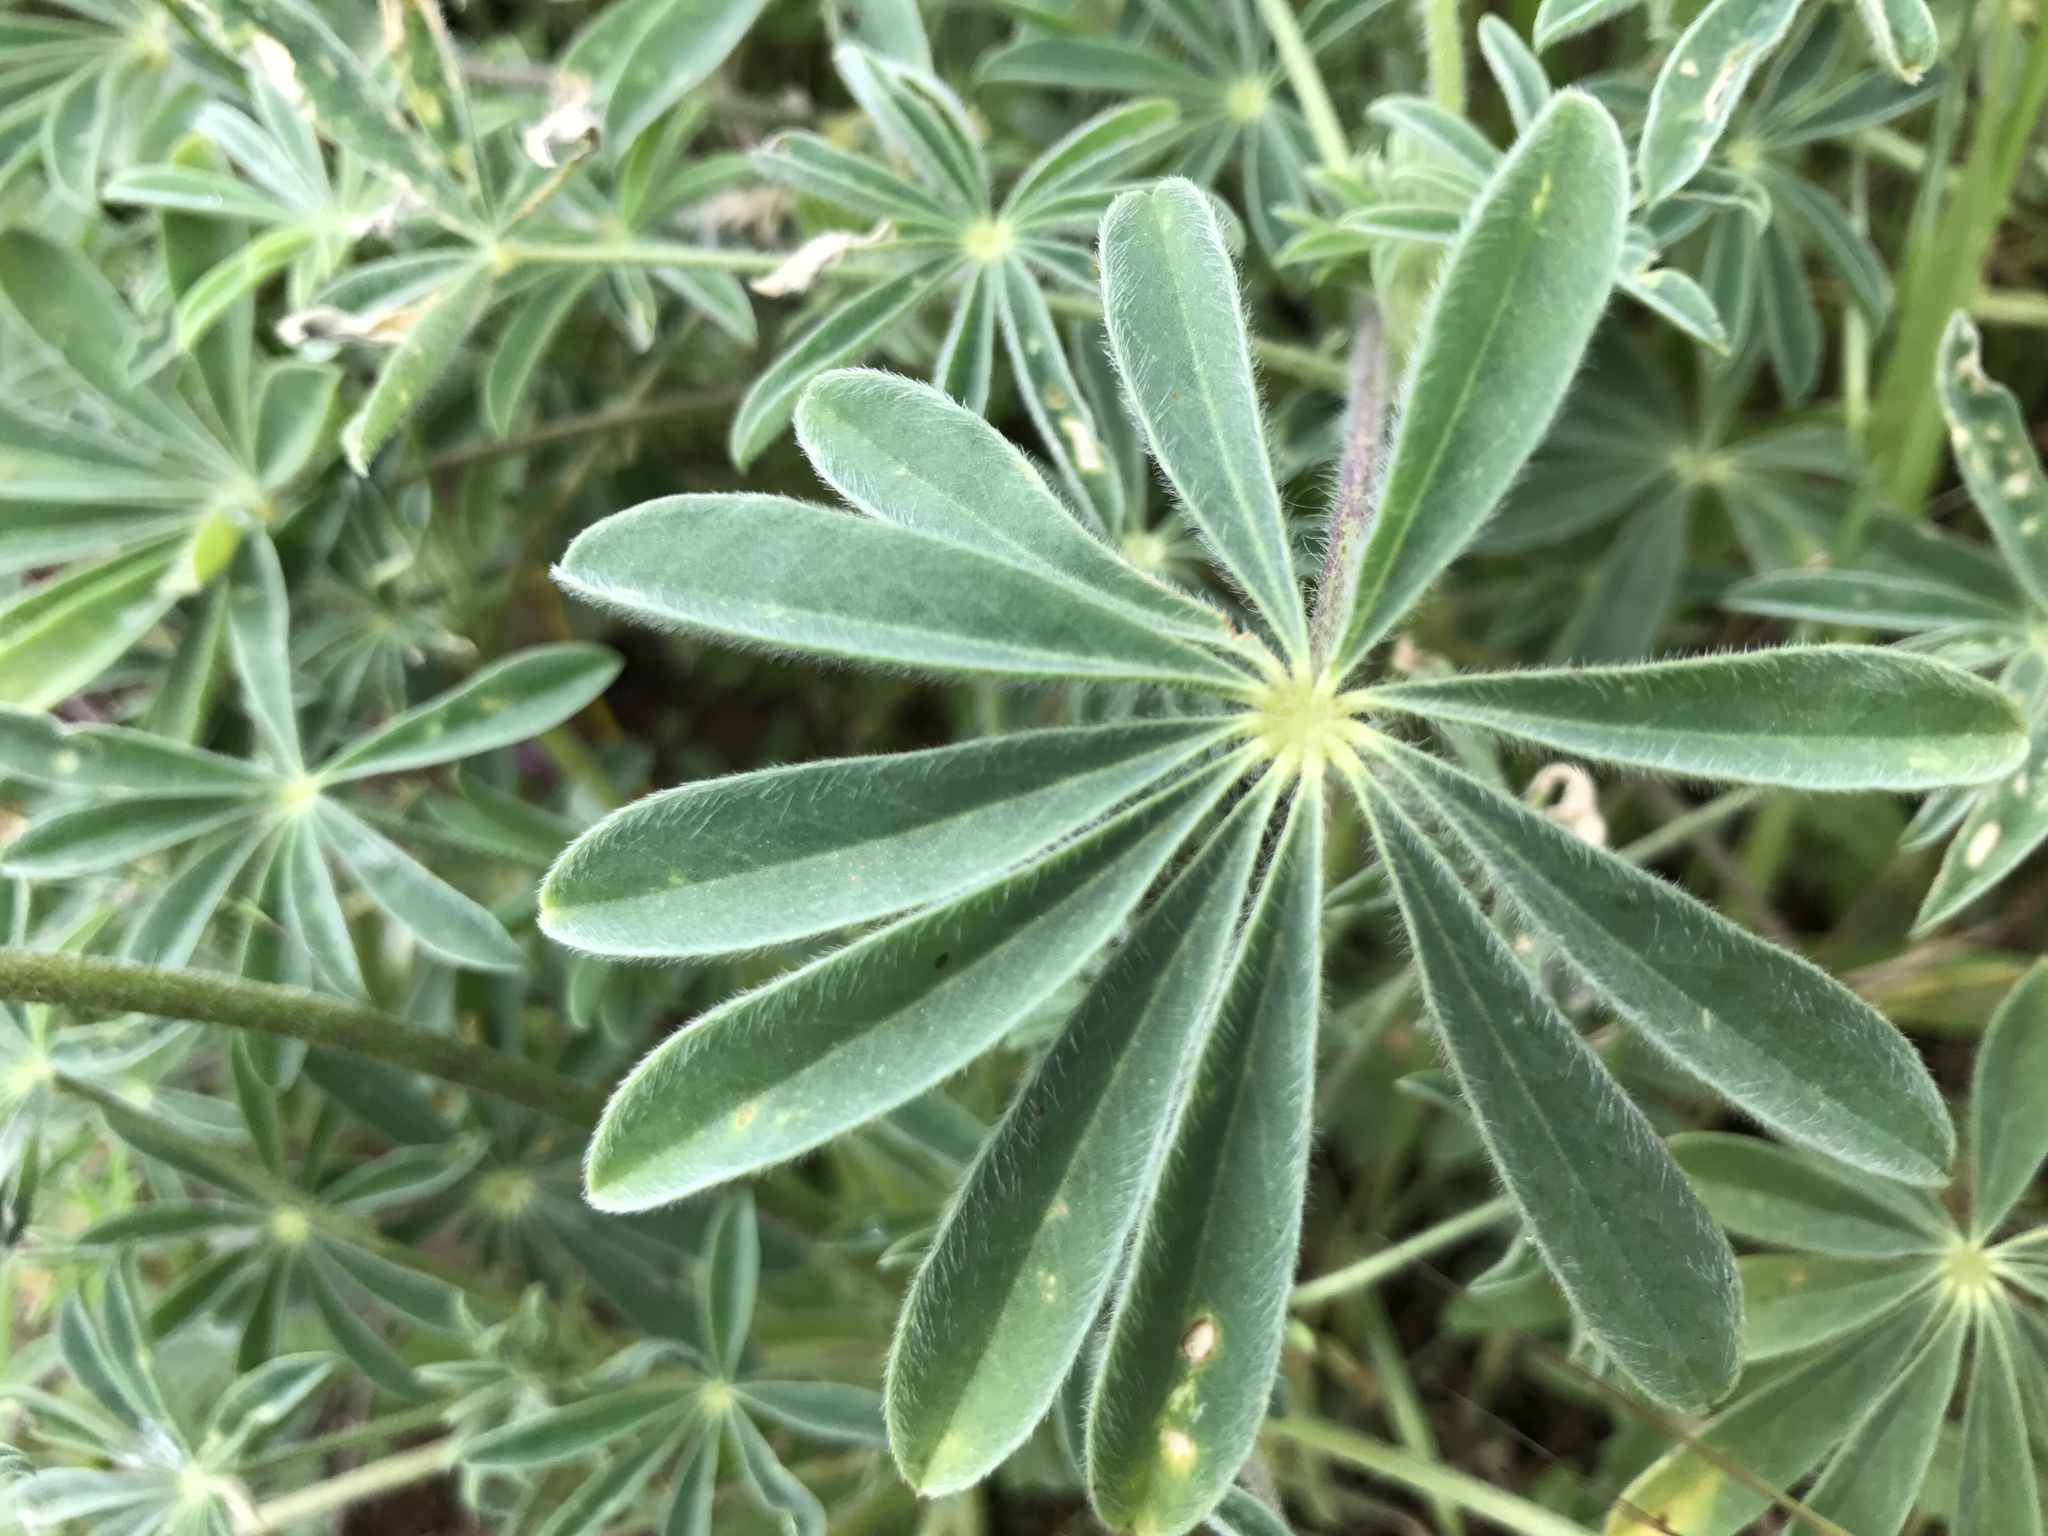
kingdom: Plantae
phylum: Tracheophyta
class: Magnoliopsida
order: Fabales
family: Fabaceae
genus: Lupinus
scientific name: Lupinus densiflorus
